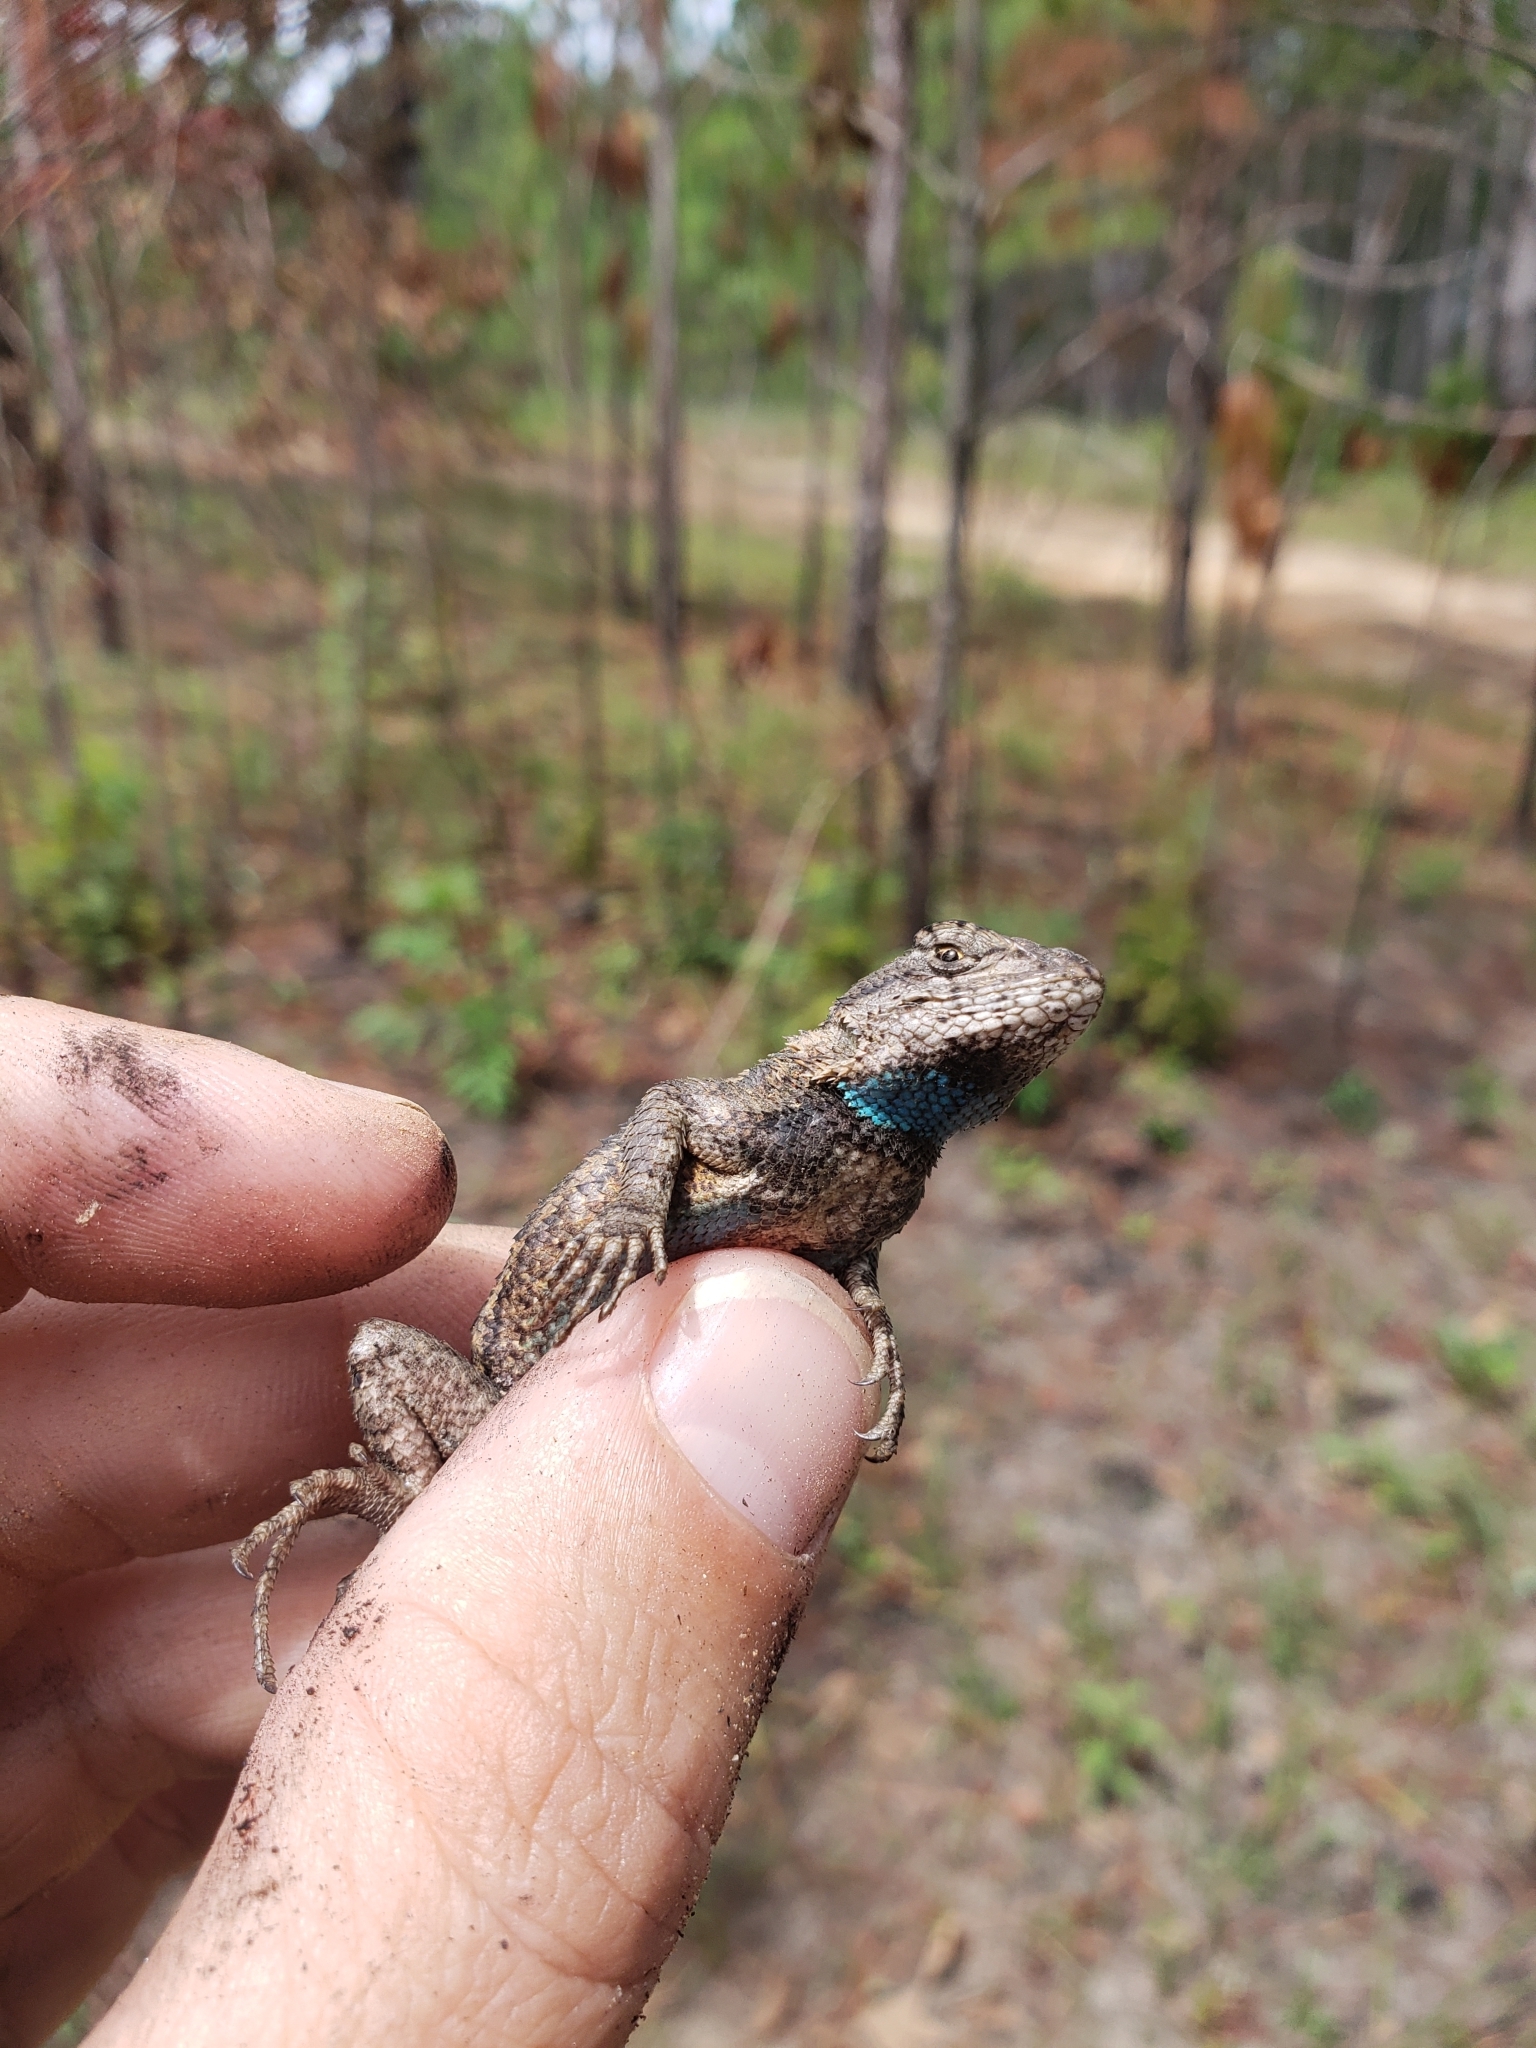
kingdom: Animalia
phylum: Chordata
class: Squamata
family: Phrynosomatidae
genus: Sceloporus
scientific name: Sceloporus consobrinus
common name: Southern prairie lizard
